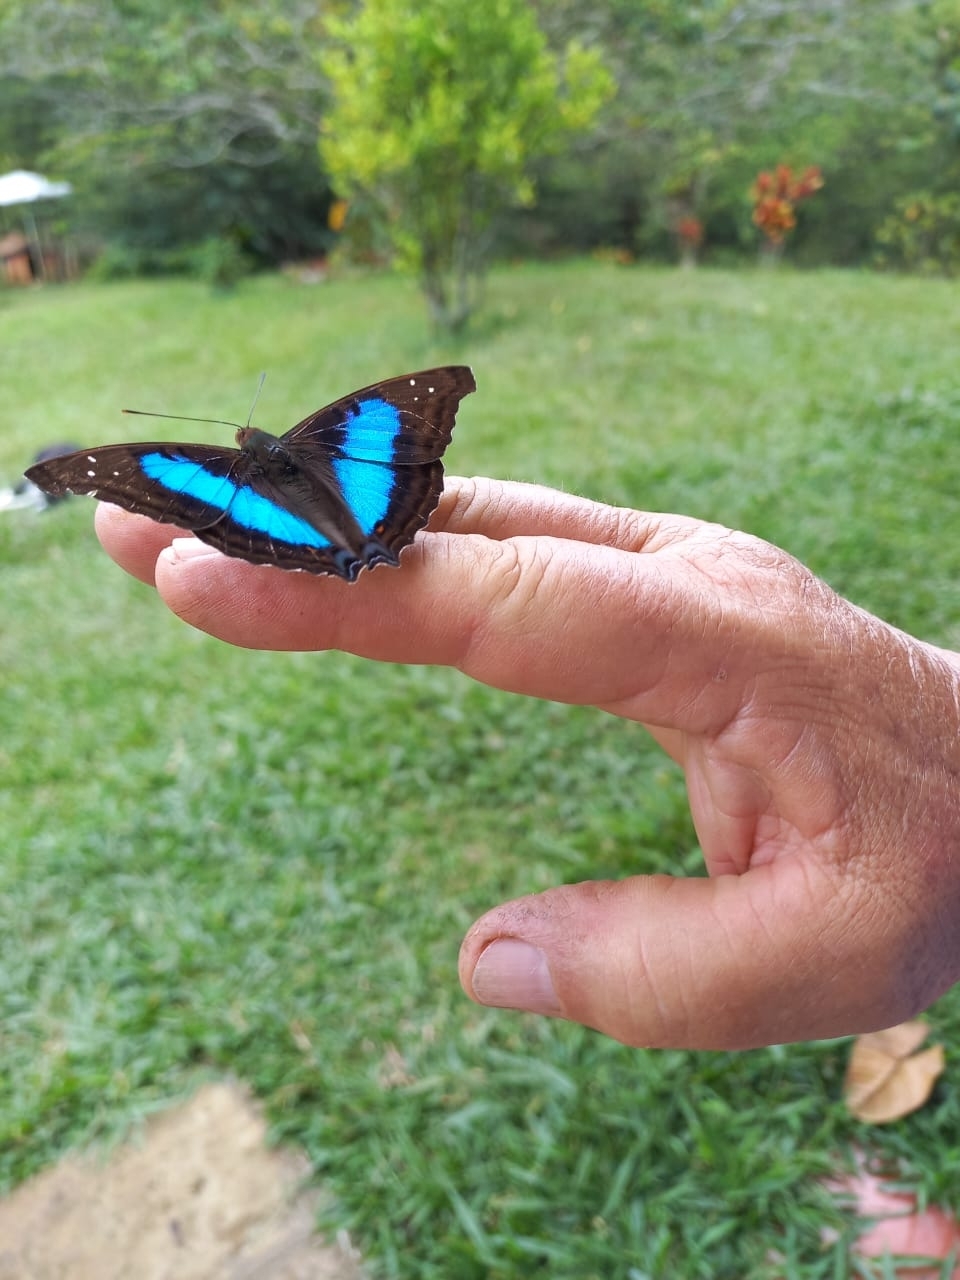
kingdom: Animalia
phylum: Arthropoda
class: Insecta
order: Lepidoptera
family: Nymphalidae
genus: Doxocopa
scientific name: Doxocopa laurentia
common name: Turquoise emperor
